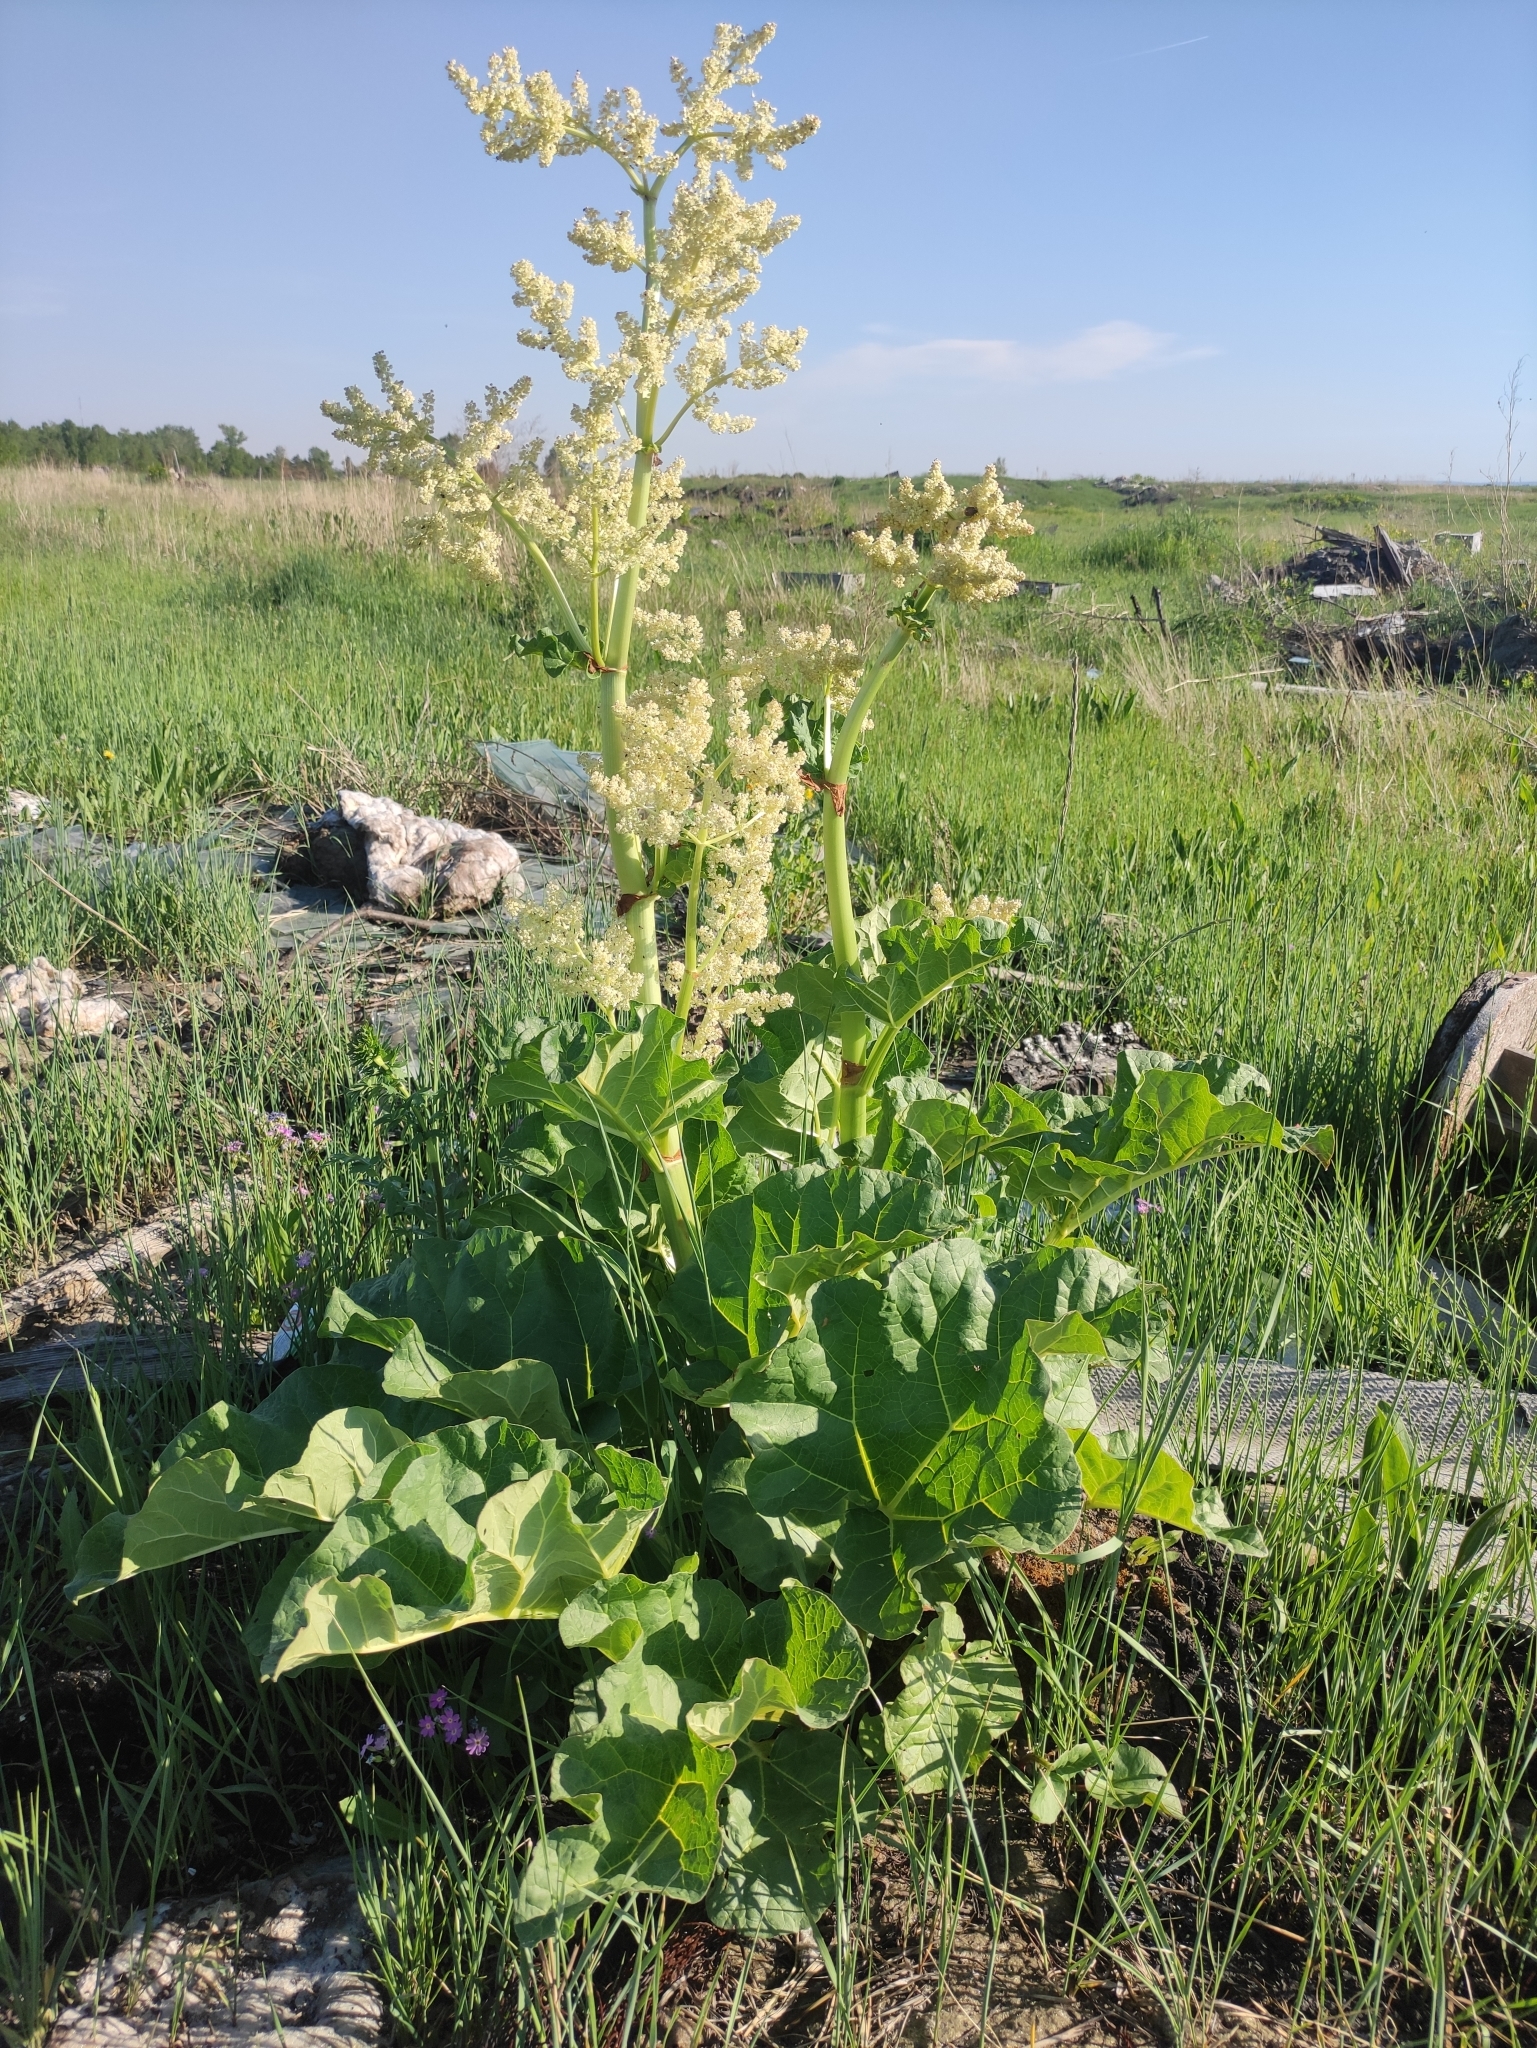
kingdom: Plantae
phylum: Tracheophyta
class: Magnoliopsida
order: Caryophyllales
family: Polygonaceae
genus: Rheum
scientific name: Rheum rhabarbarum
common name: Garden rhubarb
